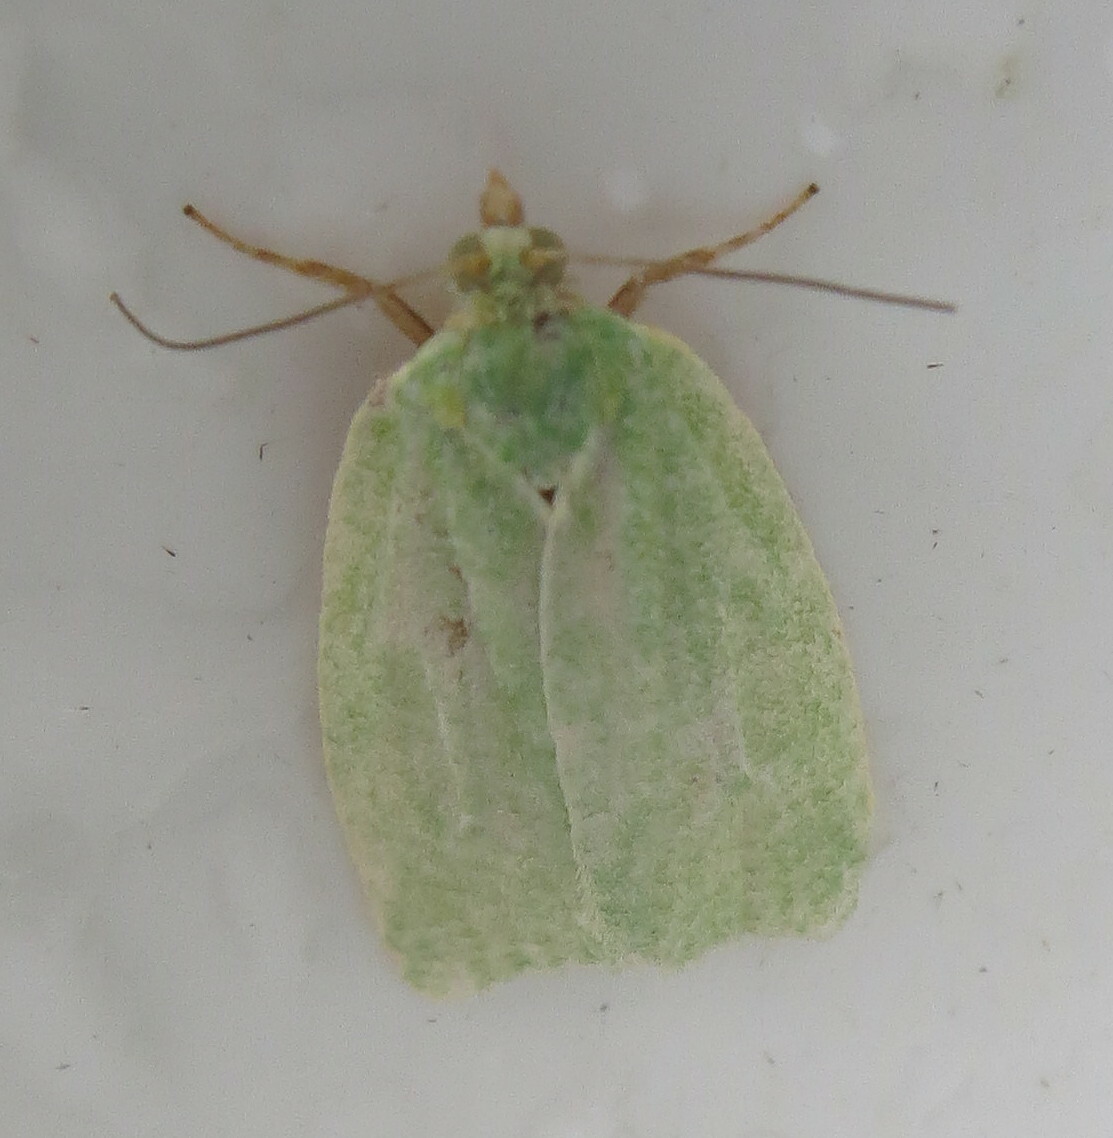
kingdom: Animalia
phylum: Arthropoda
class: Insecta
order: Lepidoptera
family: Tortricidae
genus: Tortrix
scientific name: Tortrix viridana
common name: Green oak tortrix
